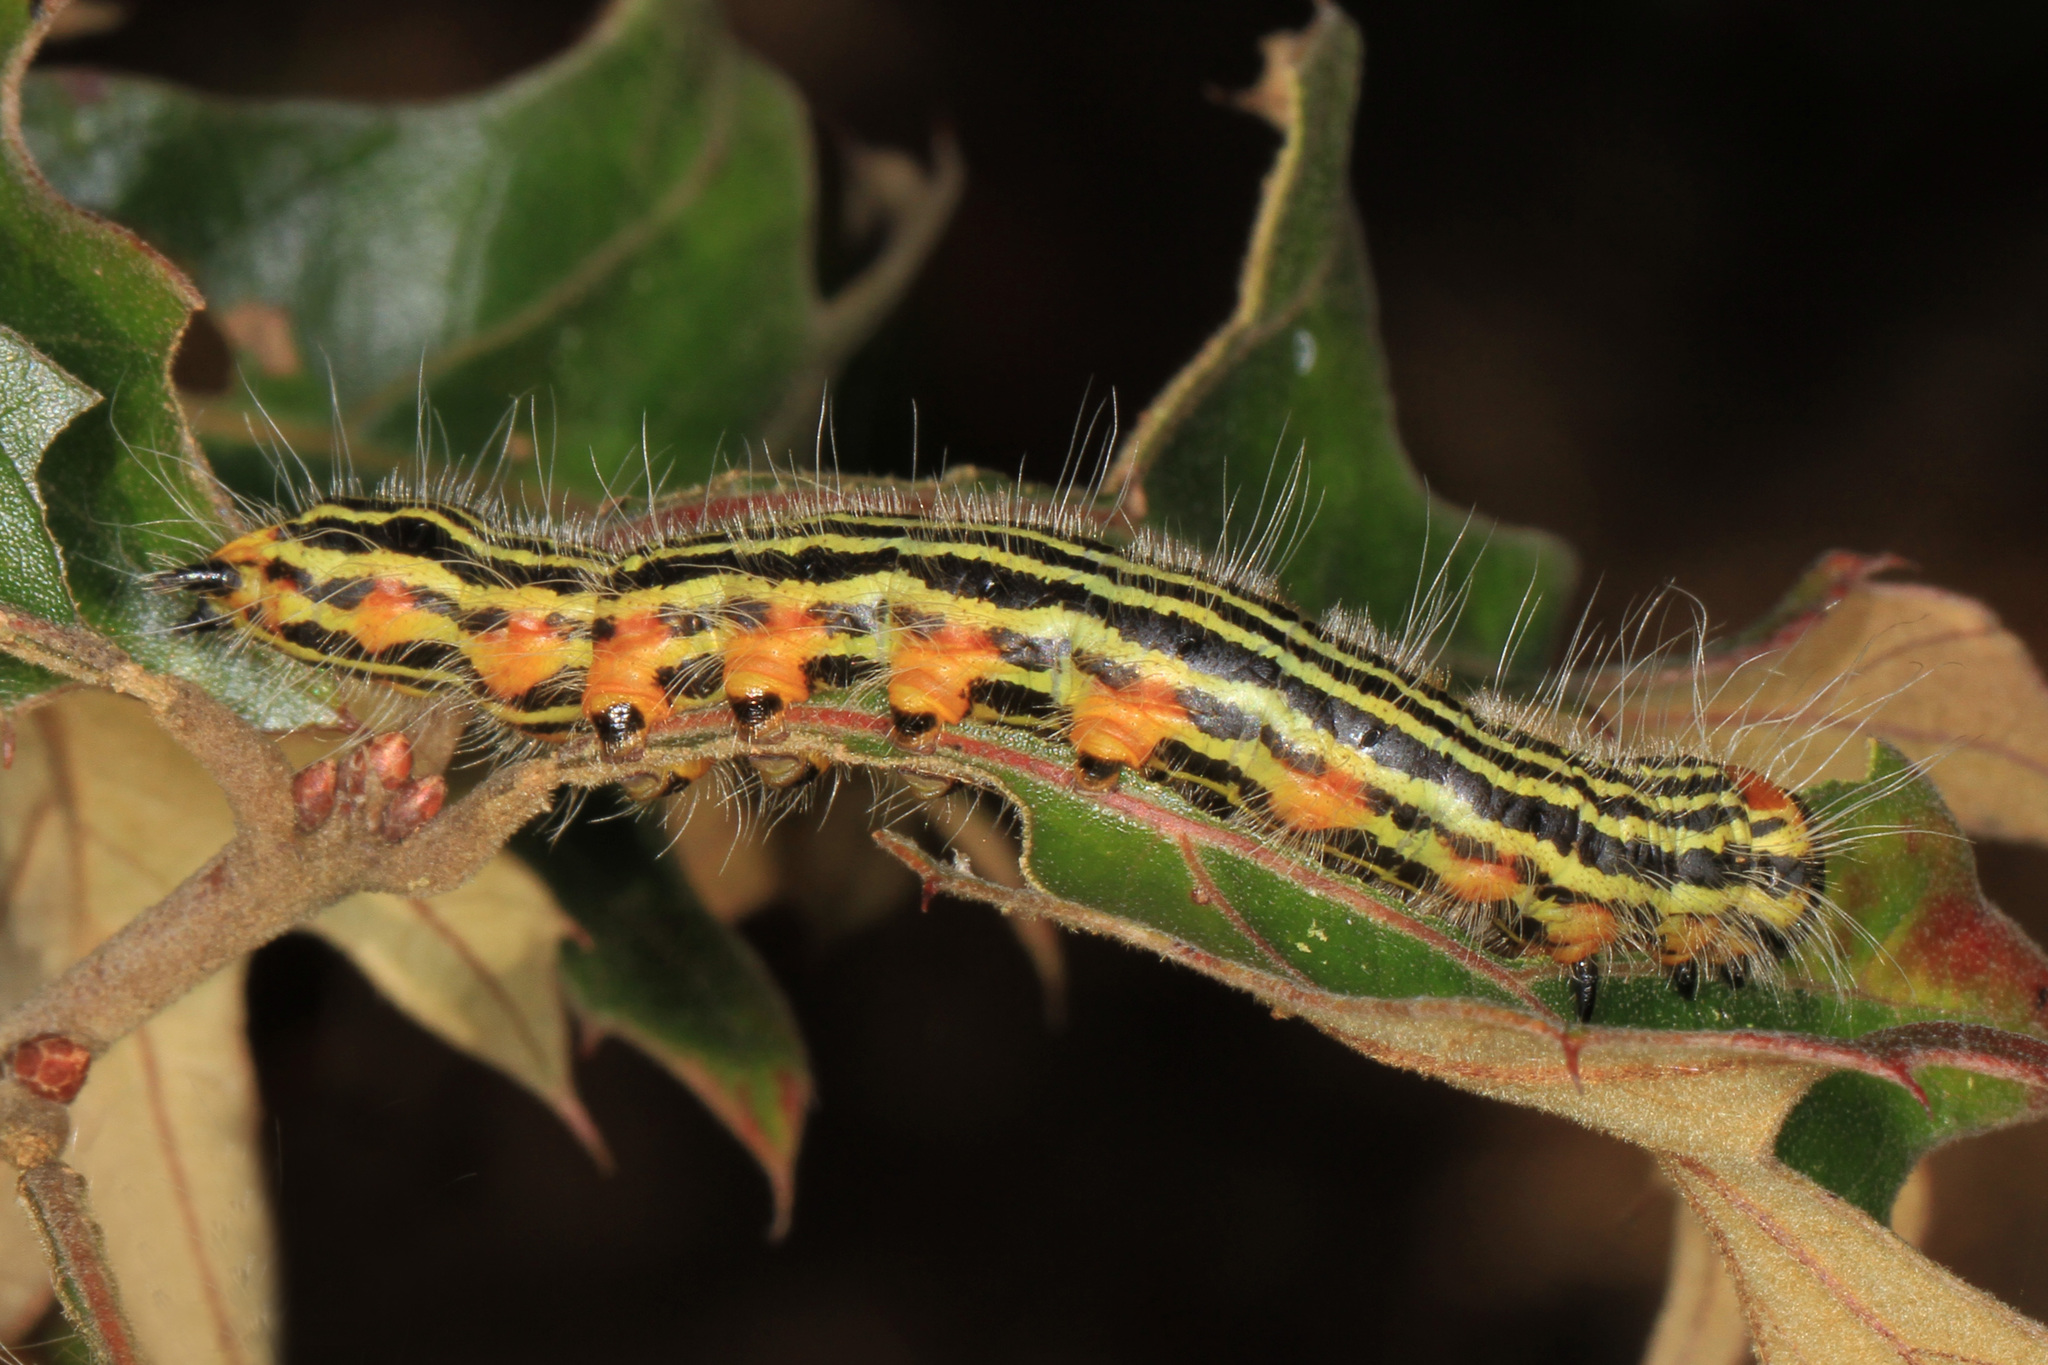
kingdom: Animalia
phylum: Arthropoda
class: Insecta
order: Lepidoptera
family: Notodontidae
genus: Datana
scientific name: Datana ministra
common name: Yellow-necked caterpillar moth
